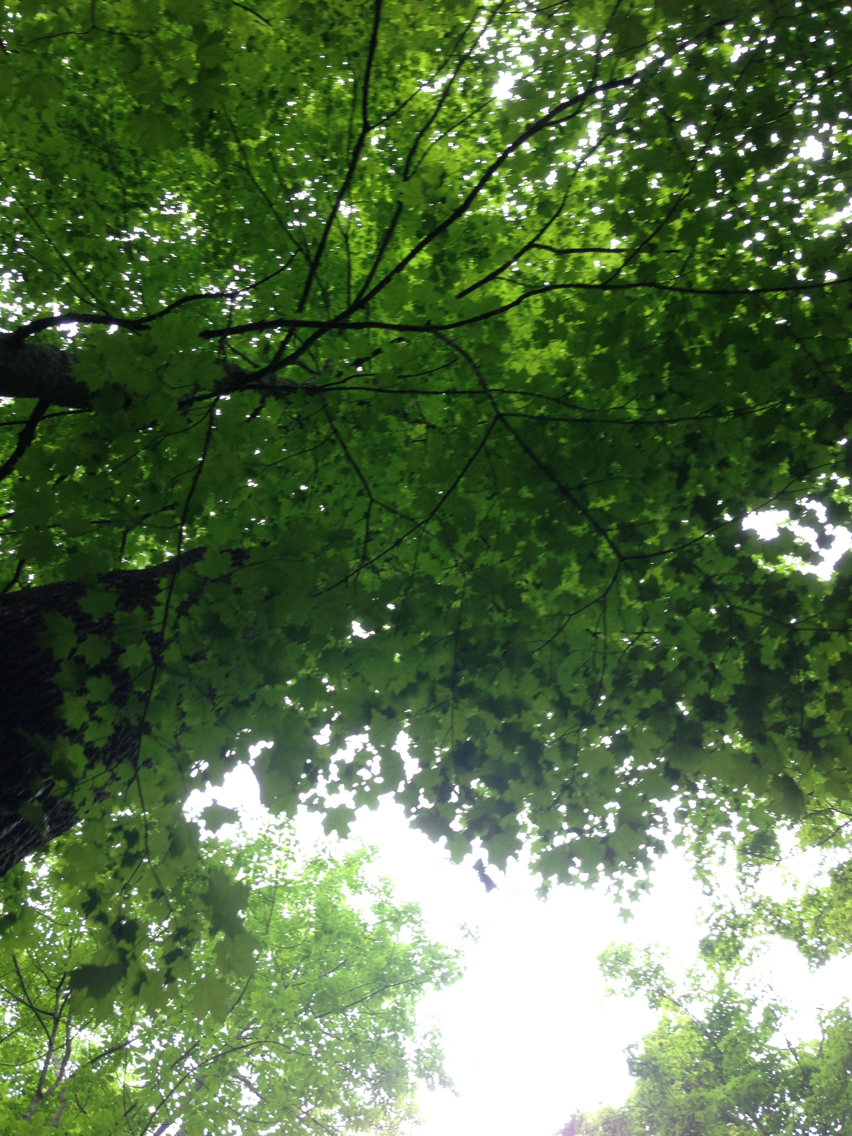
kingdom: Plantae
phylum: Tracheophyta
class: Magnoliopsida
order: Sapindales
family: Sapindaceae
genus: Acer
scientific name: Acer saccharum
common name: Sugar maple
